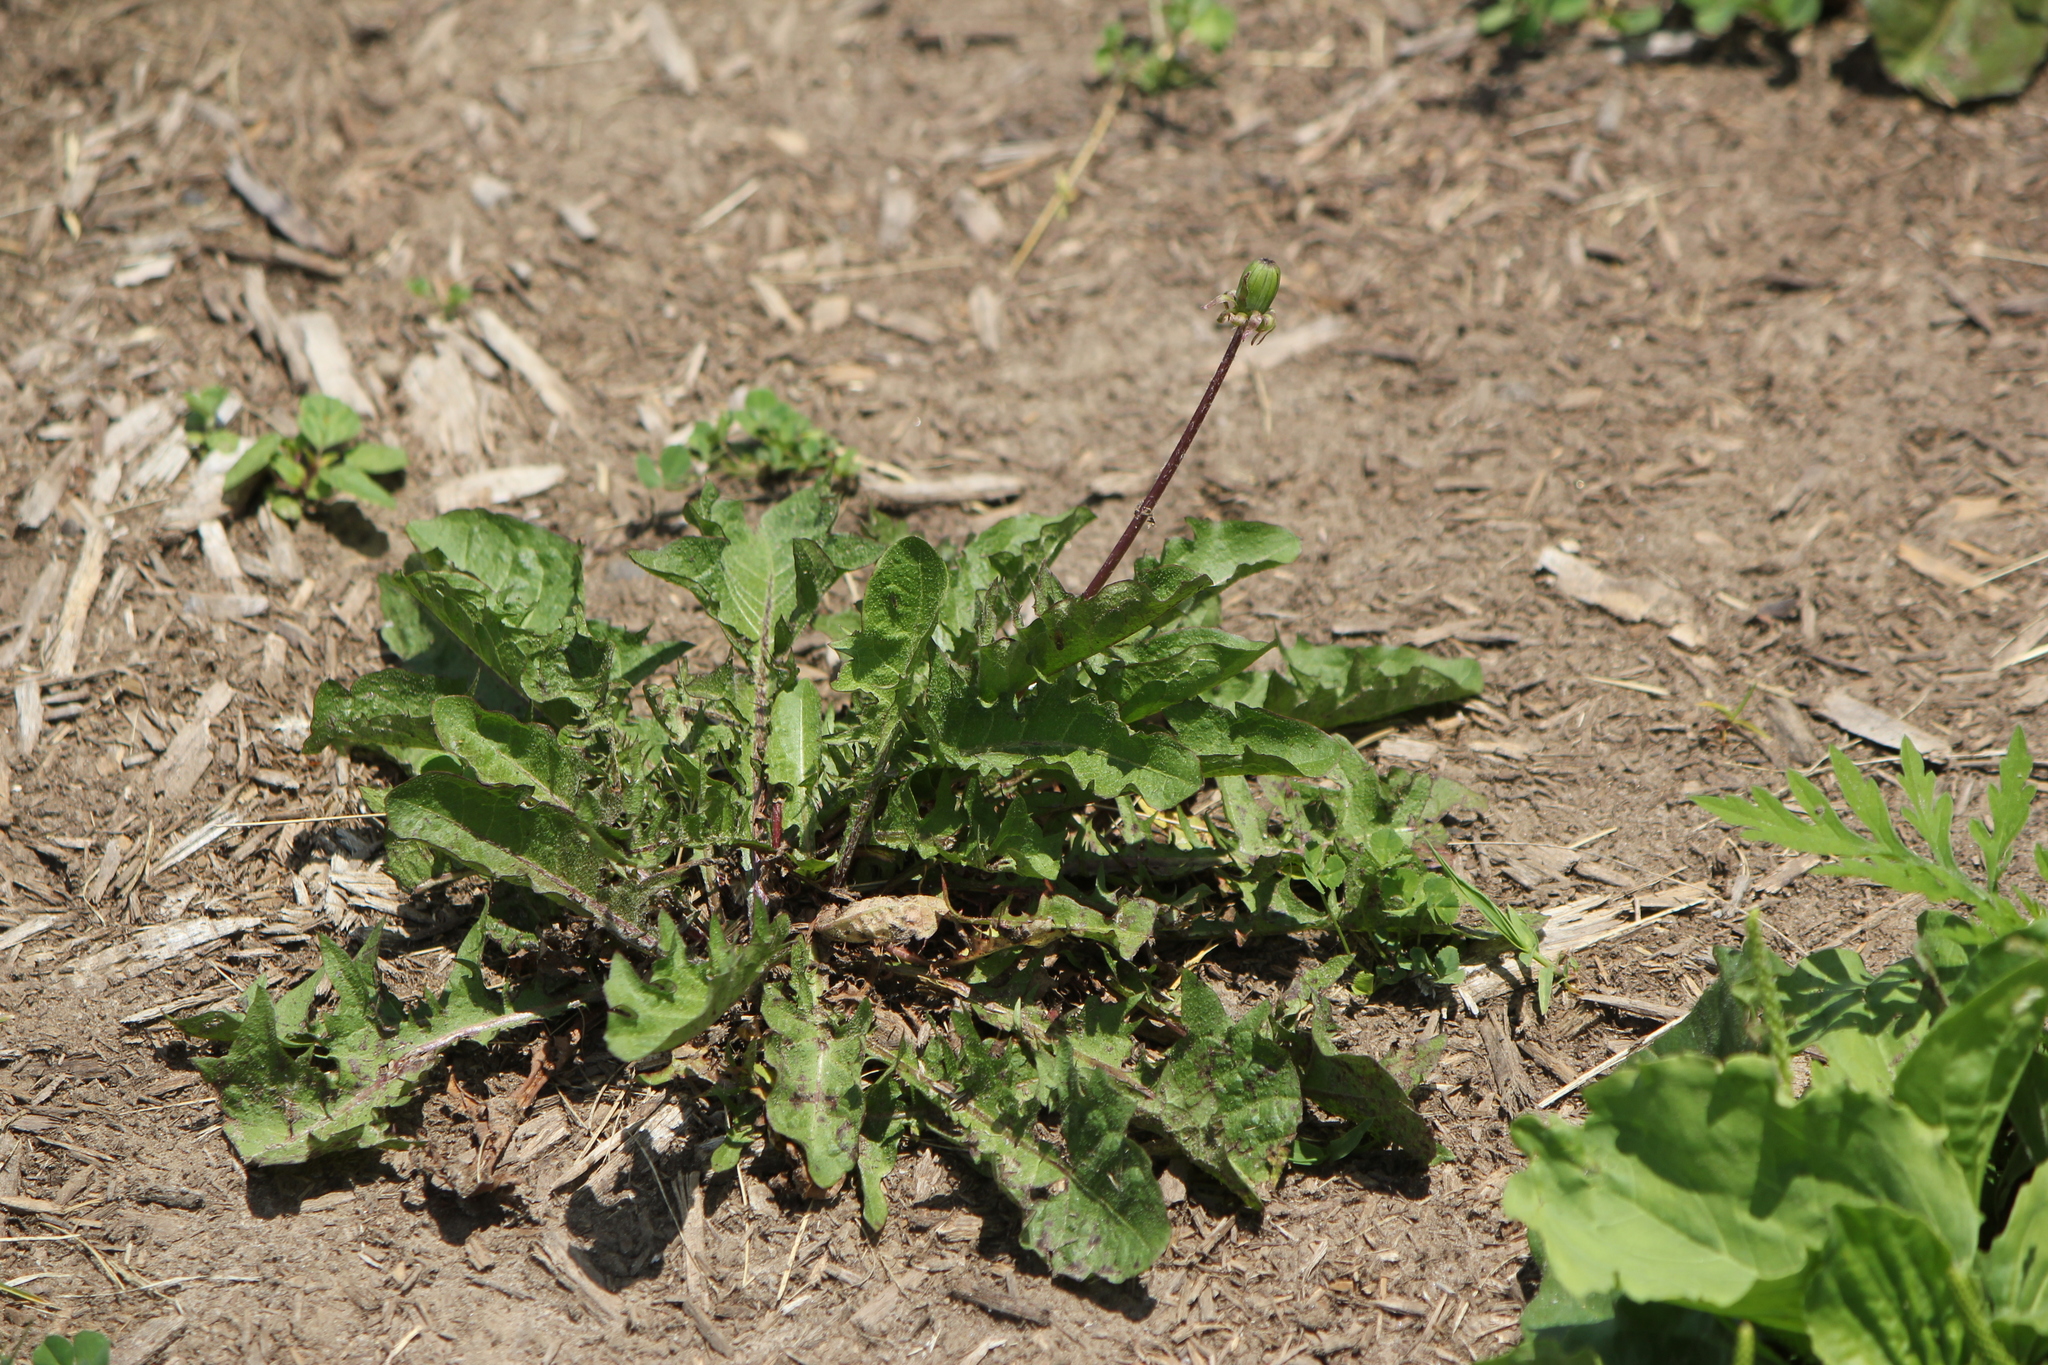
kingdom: Plantae
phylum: Tracheophyta
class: Magnoliopsida
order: Asterales
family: Asteraceae
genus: Taraxacum
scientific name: Taraxacum officinale
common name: Common dandelion
